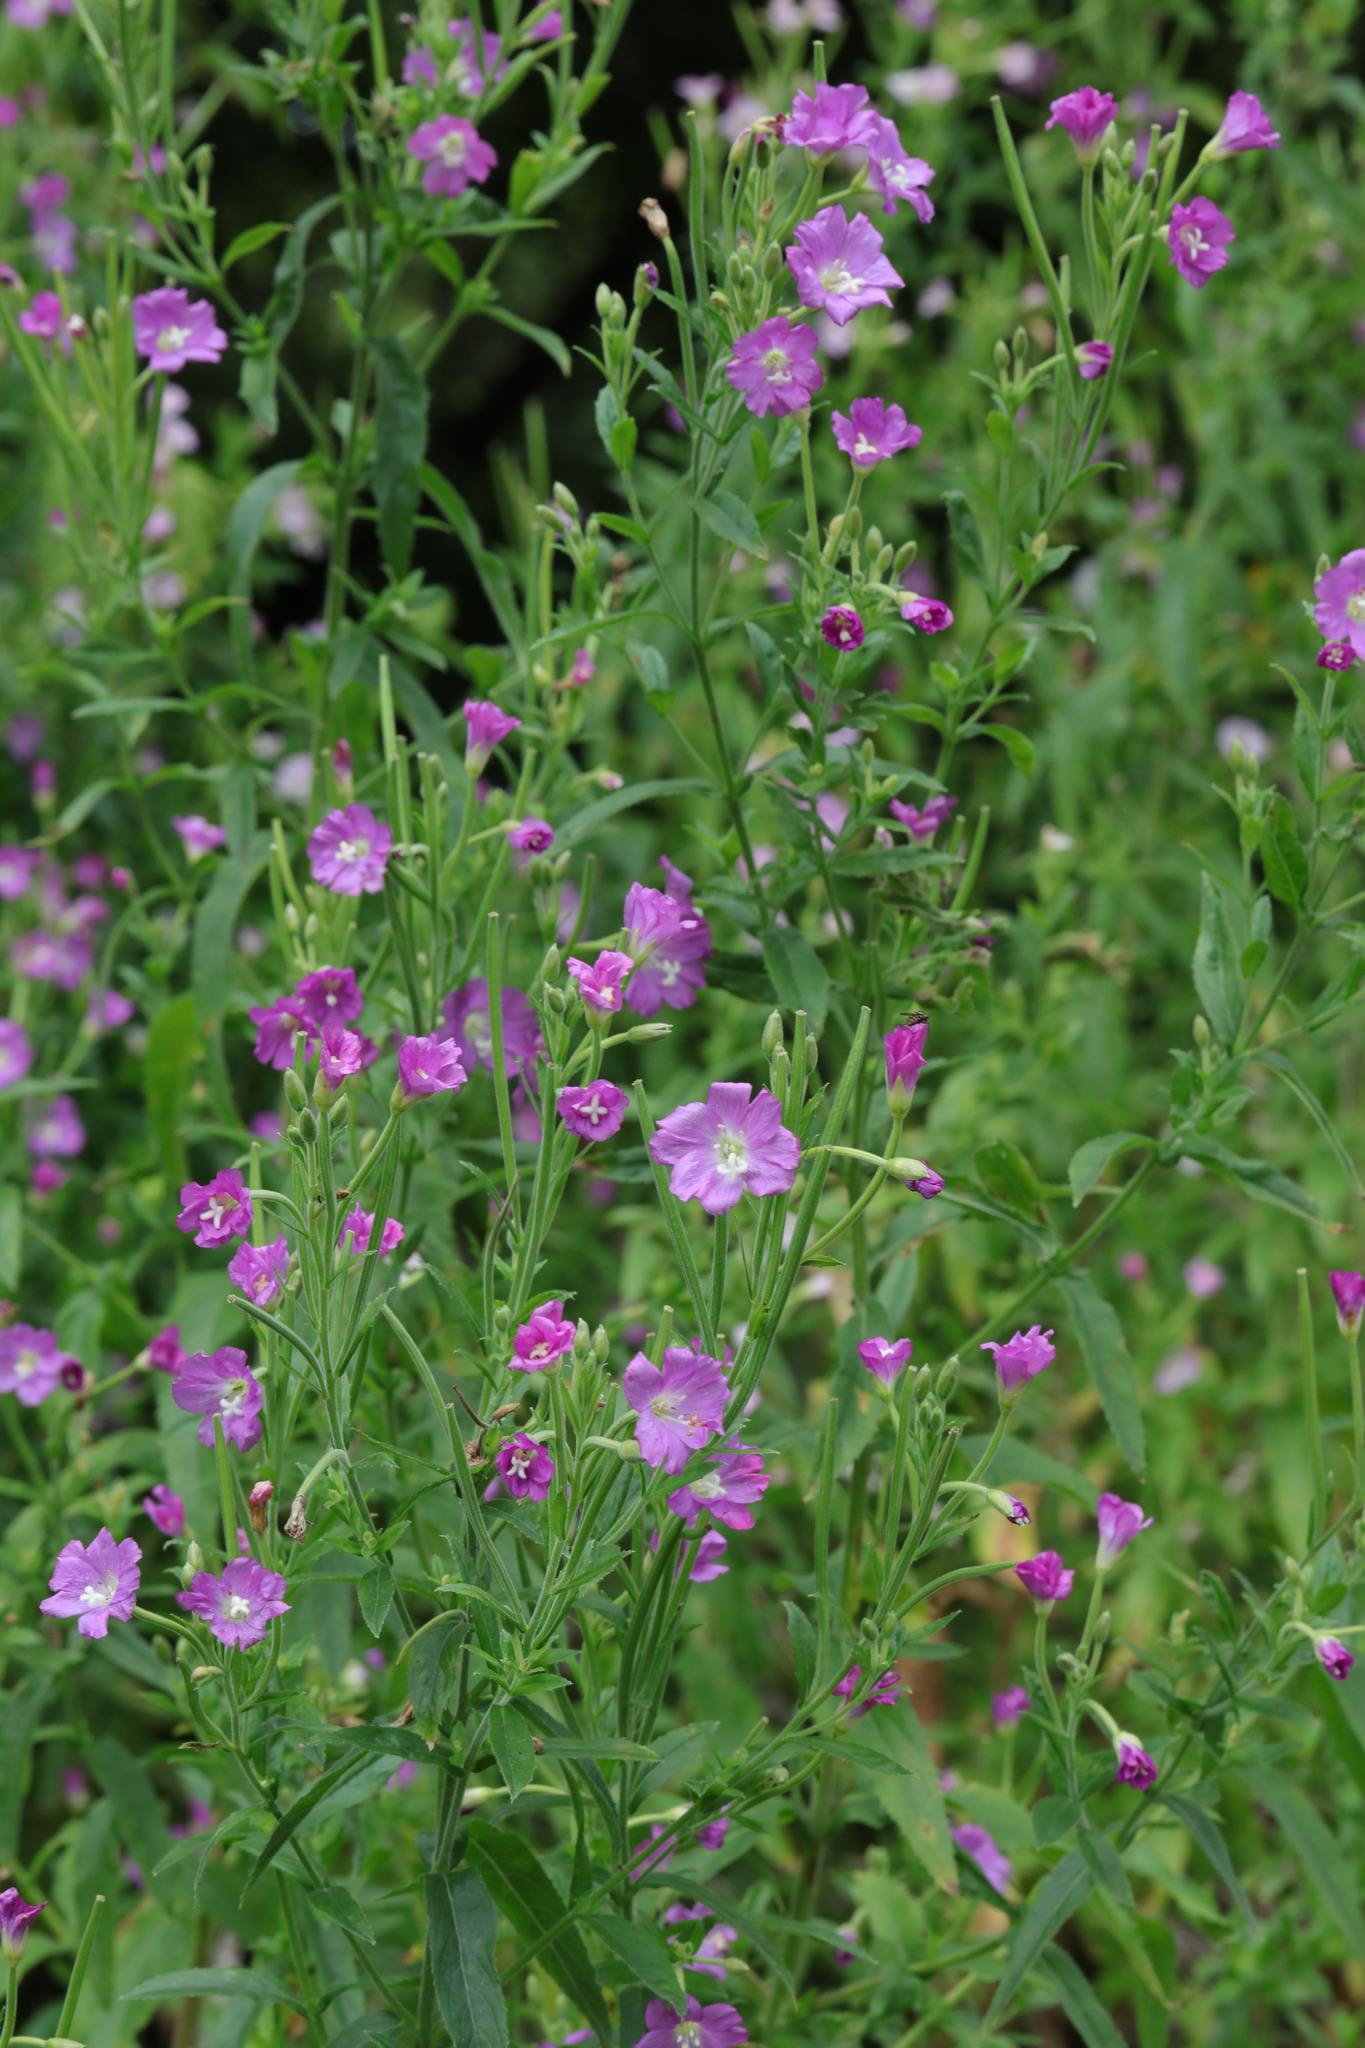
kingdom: Plantae
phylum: Tracheophyta
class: Magnoliopsida
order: Myrtales
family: Onagraceae
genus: Epilobium
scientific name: Epilobium hirsutum
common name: Great willowherb
